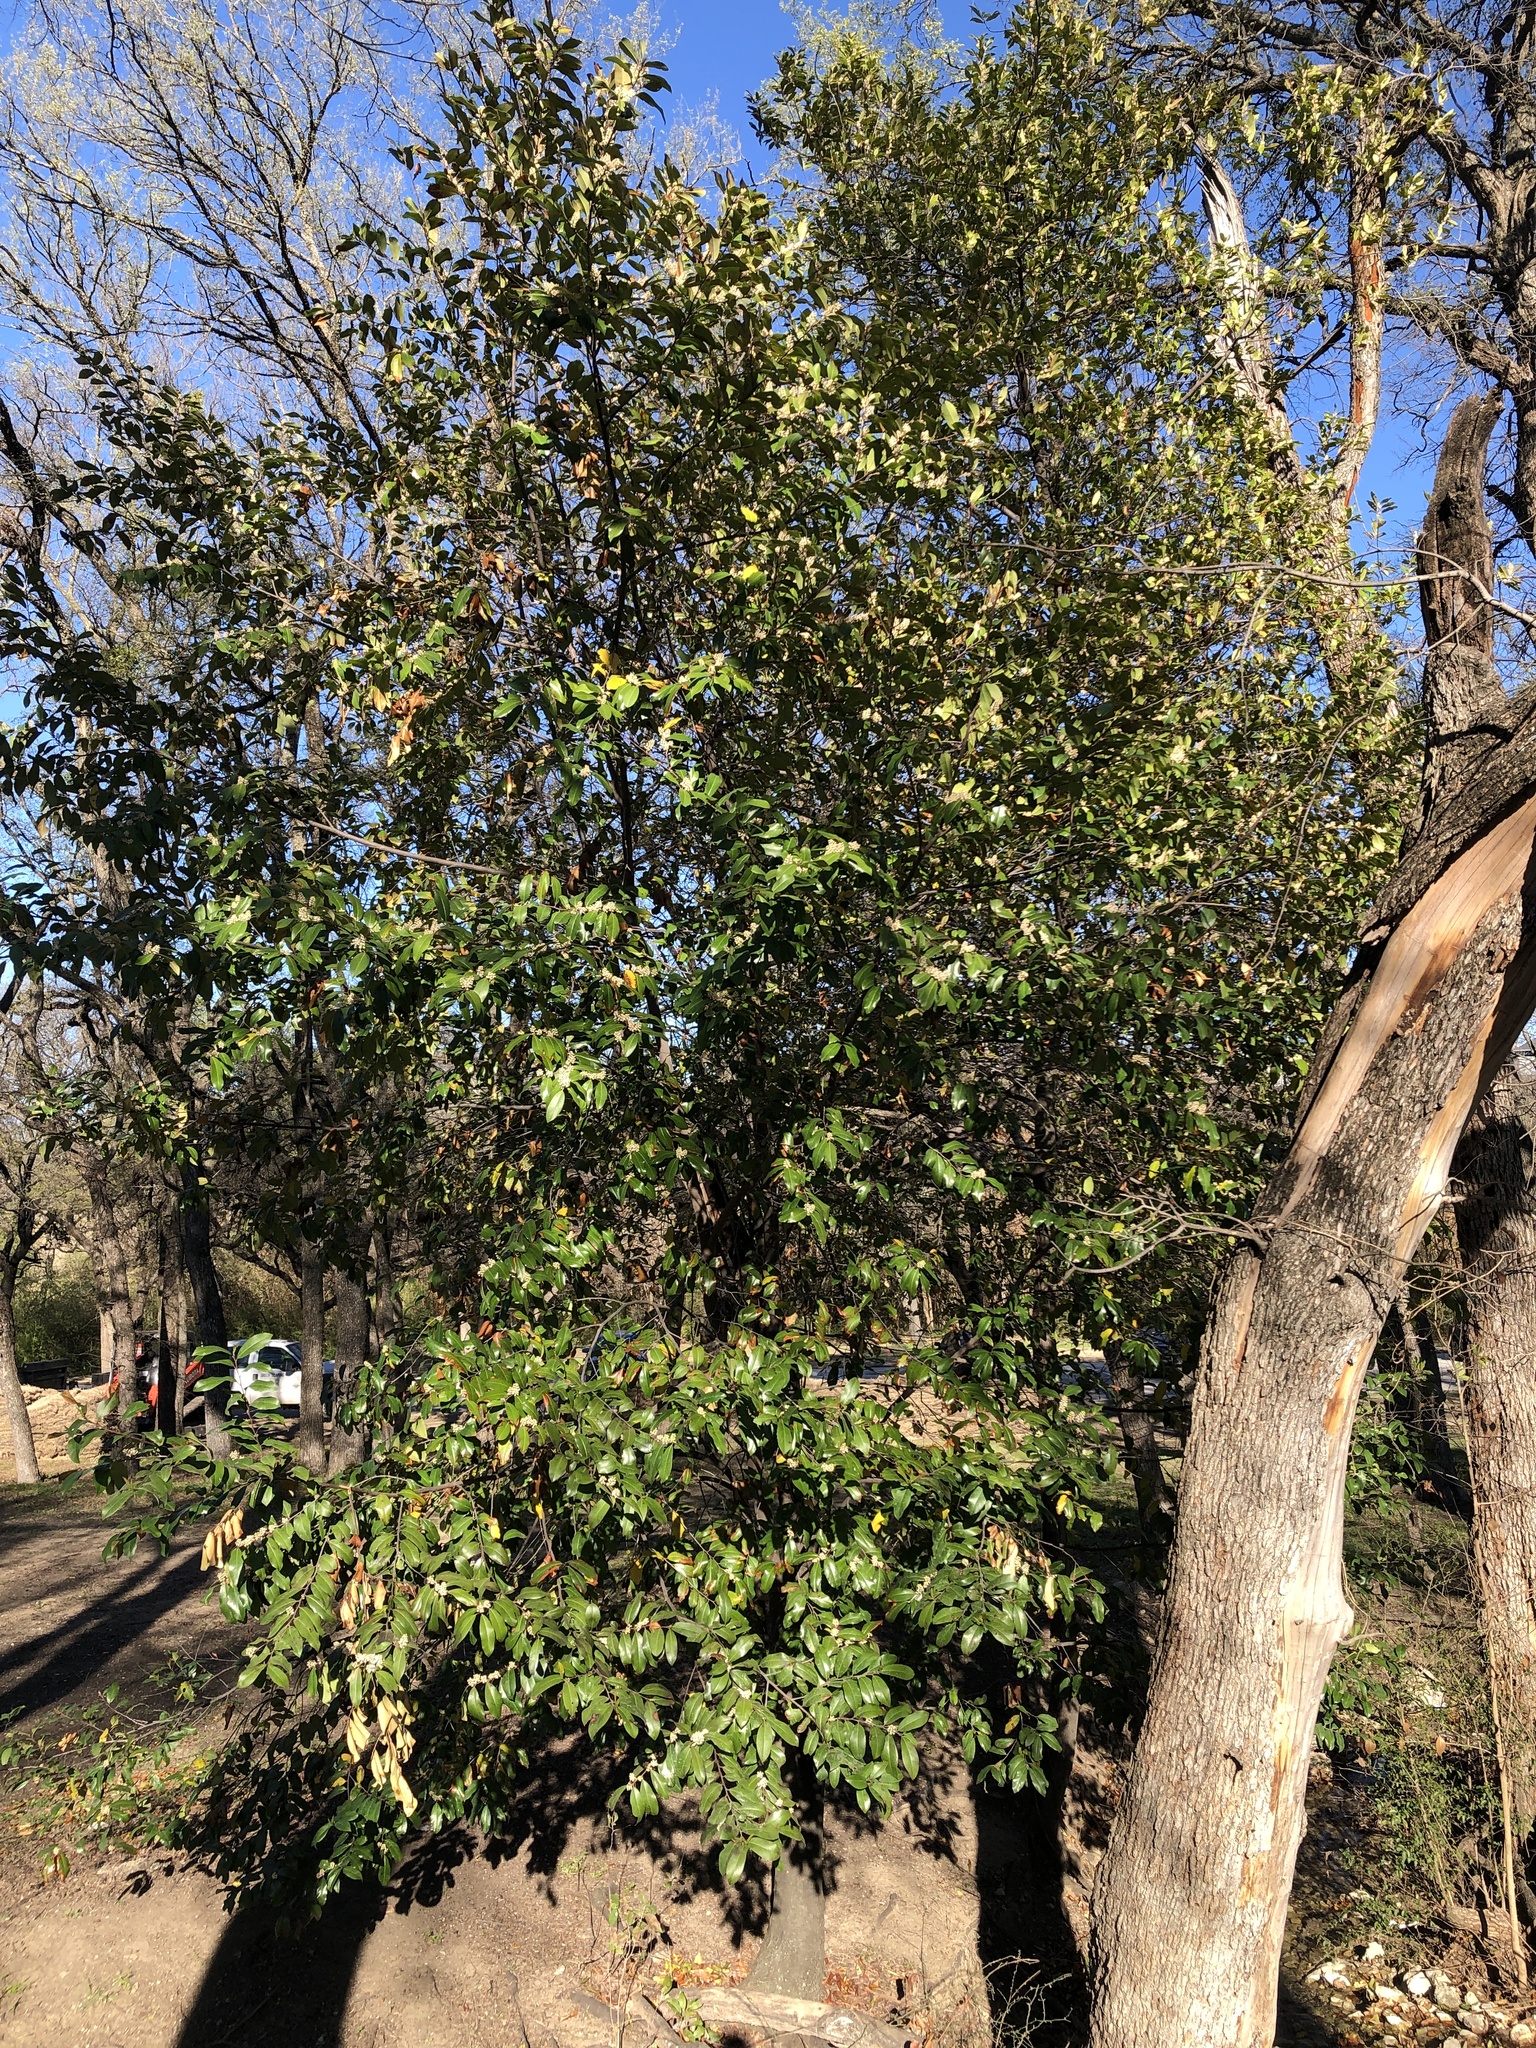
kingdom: Plantae
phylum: Tracheophyta
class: Magnoliopsida
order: Rosales
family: Rosaceae
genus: Prunus
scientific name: Prunus caroliniana
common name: Carolina laurel cherry
